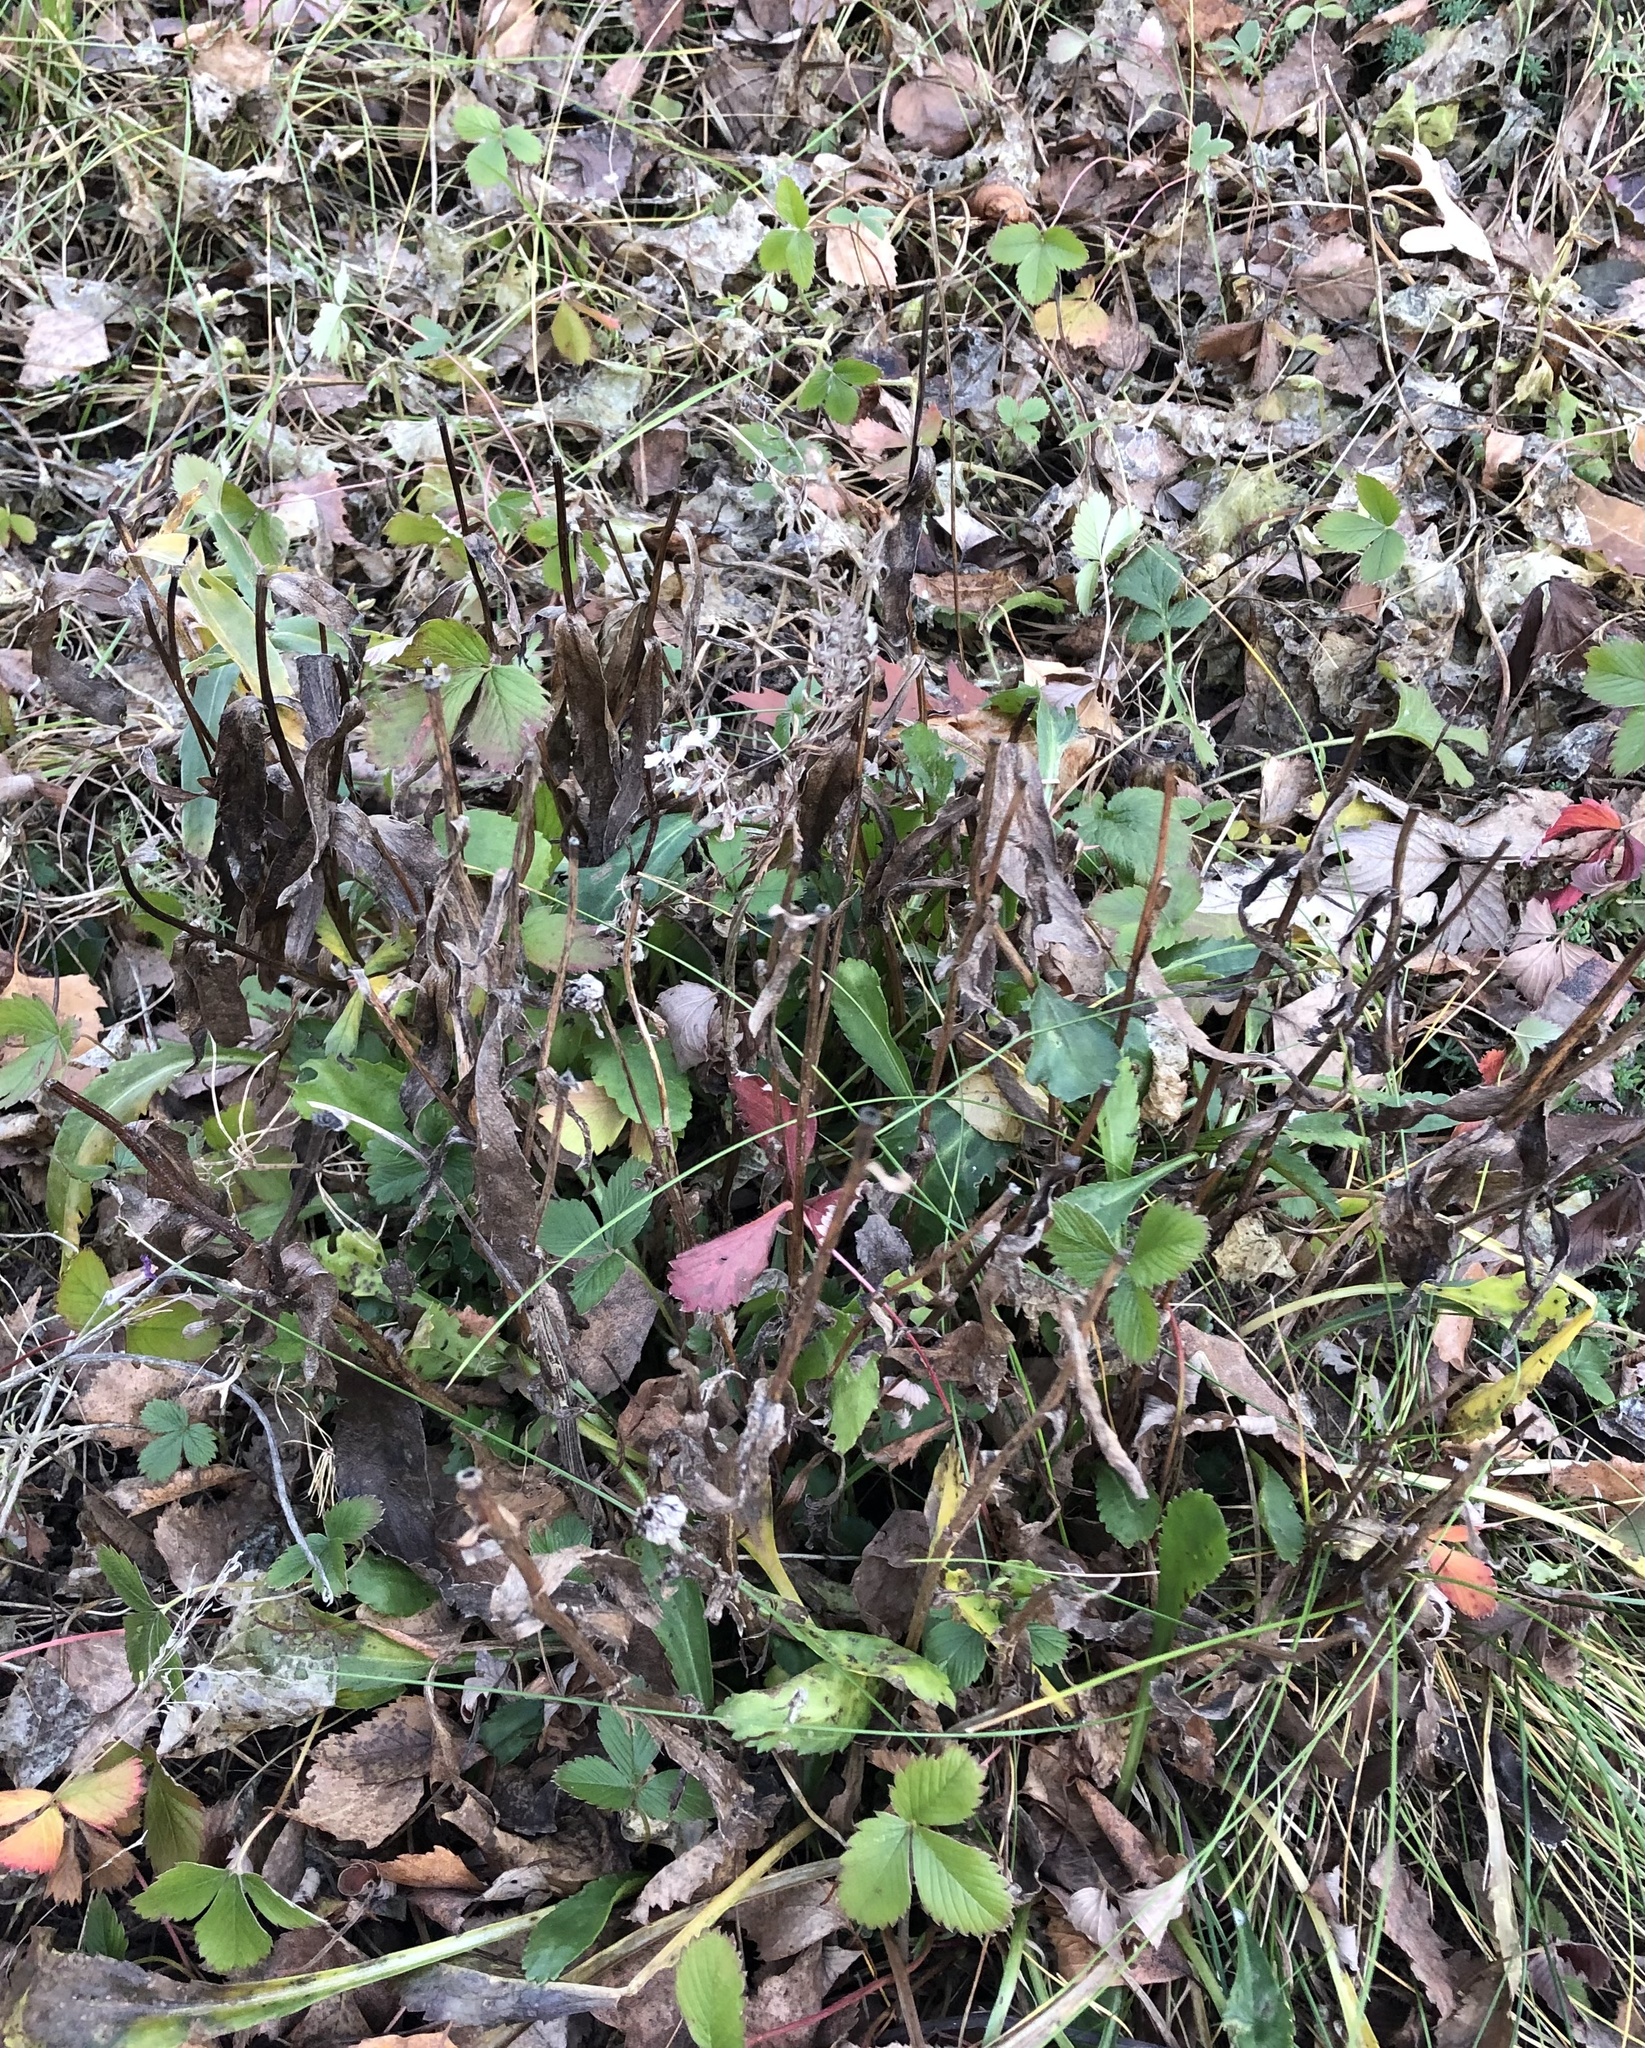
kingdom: Plantae
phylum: Tracheophyta
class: Magnoliopsida
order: Rosales
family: Rosaceae
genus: Fragaria
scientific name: Fragaria vesca
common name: Wild strawberry
